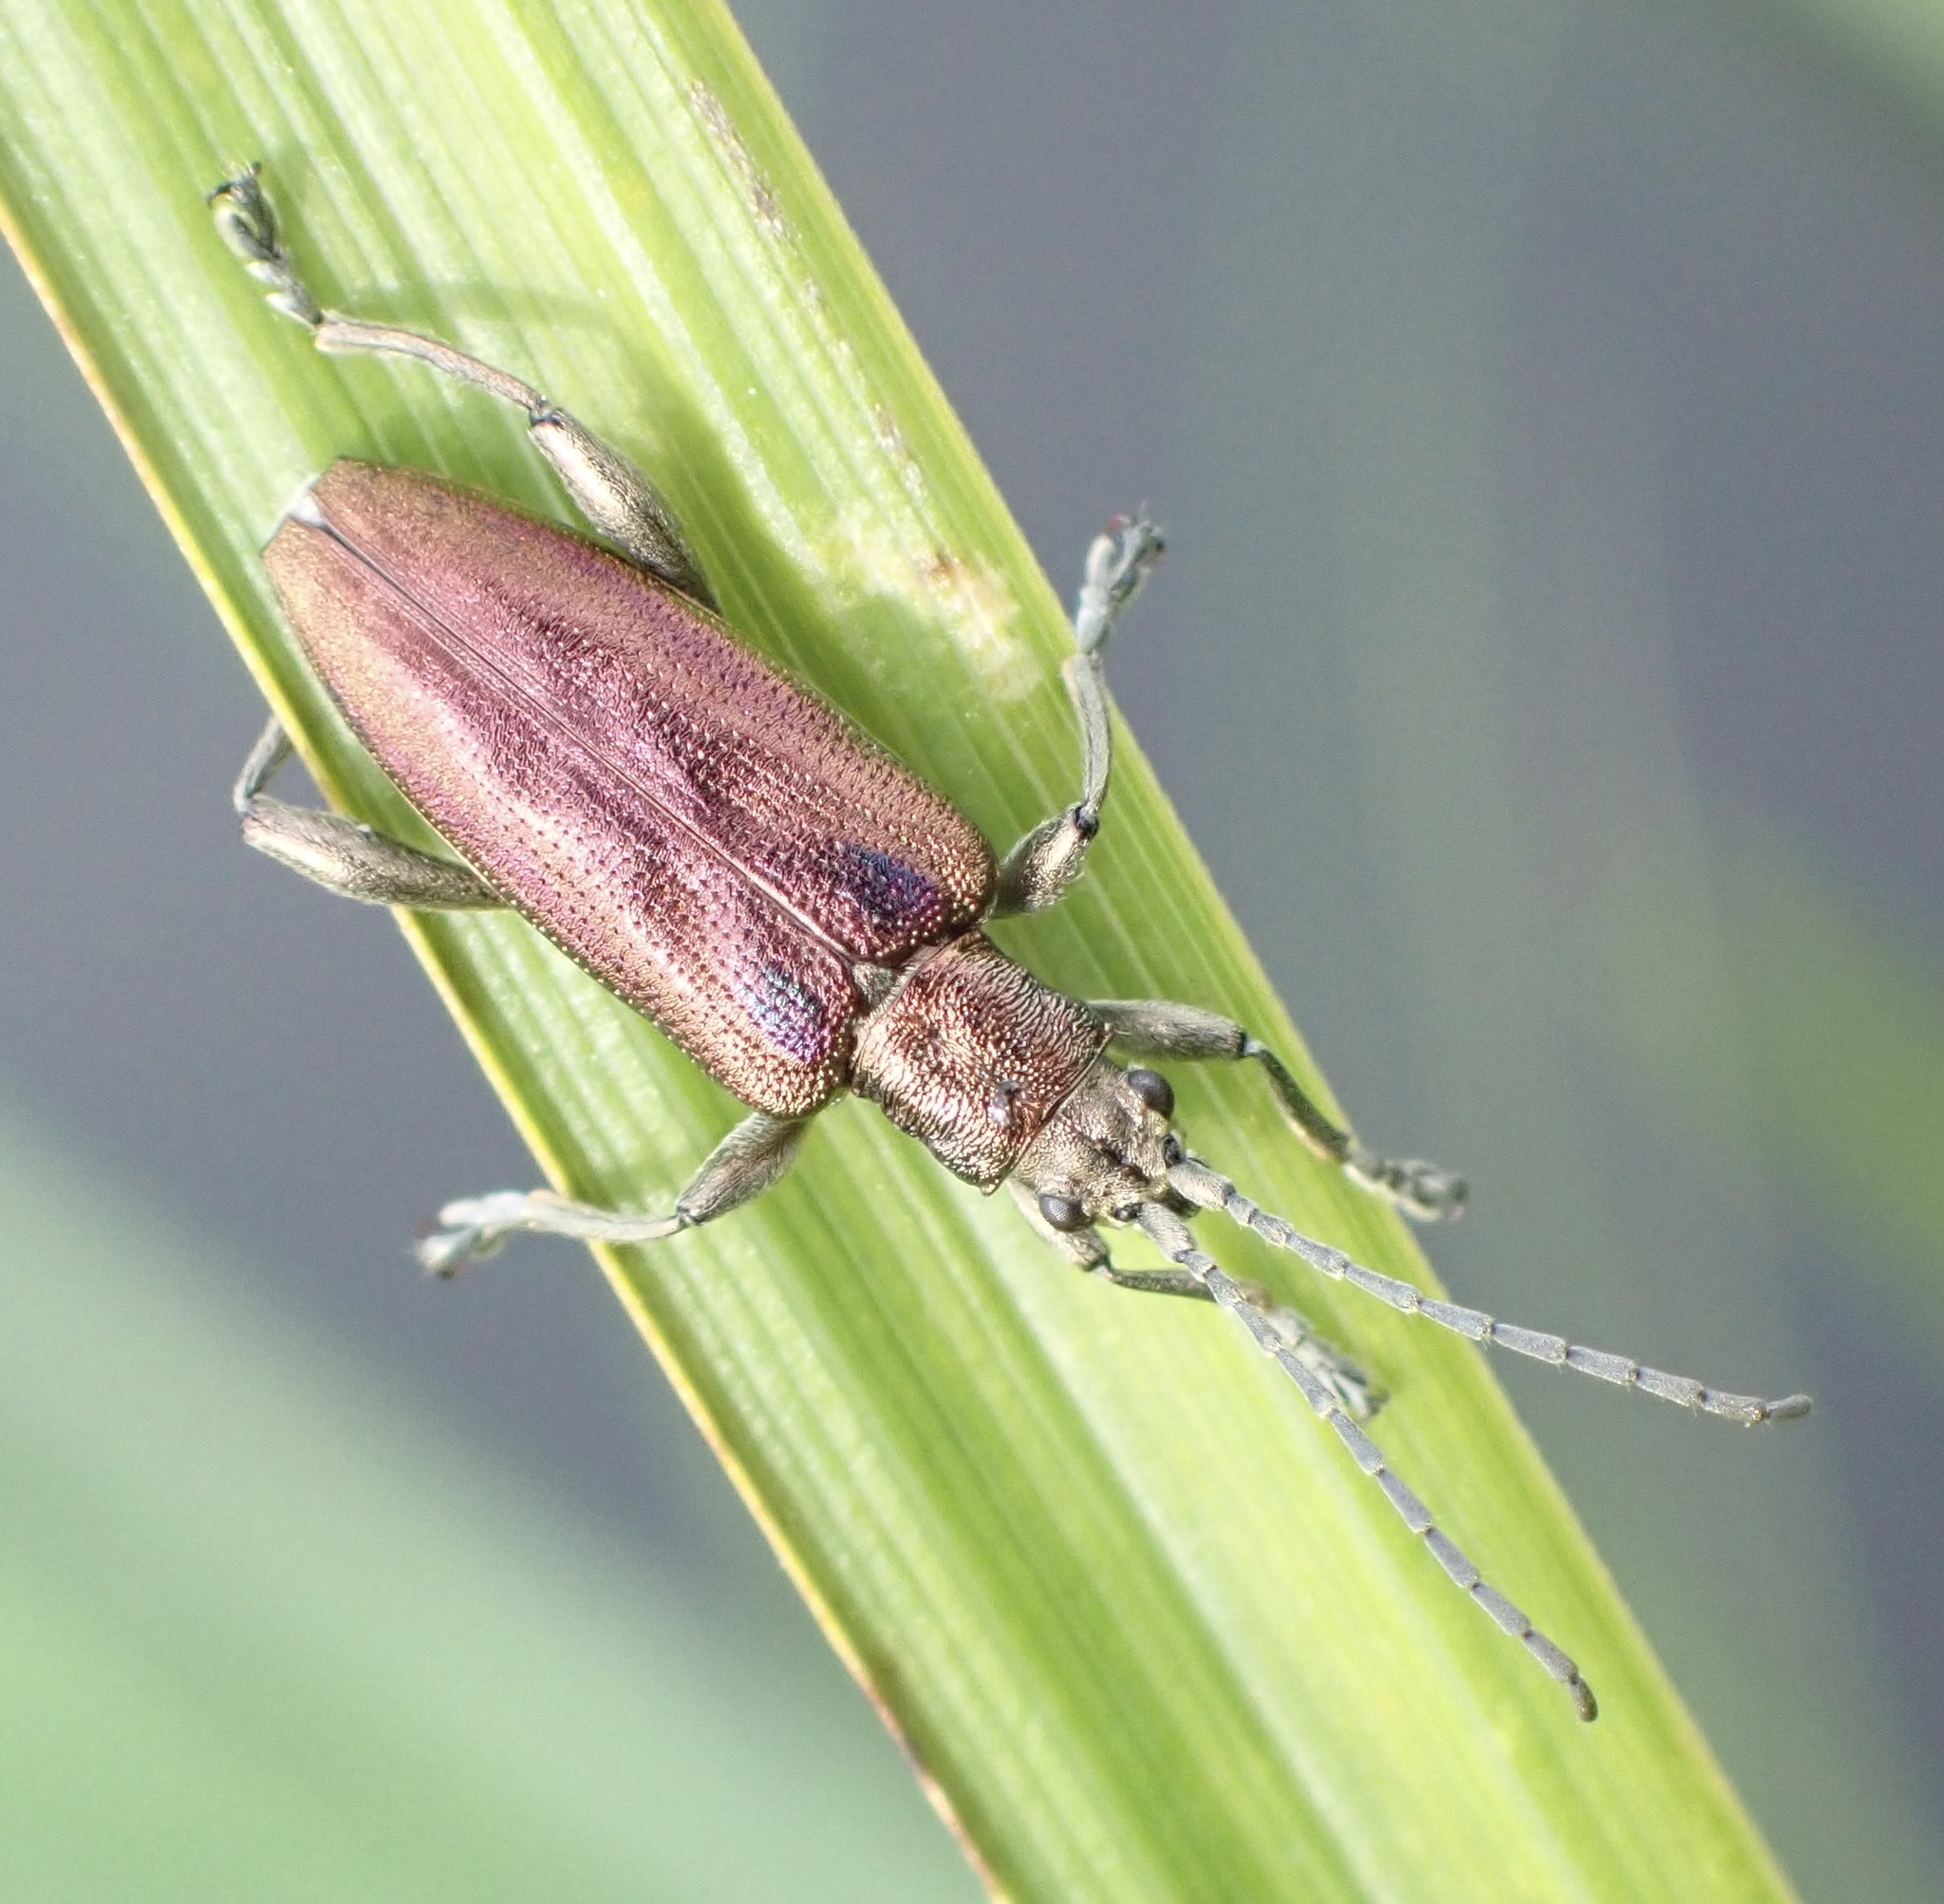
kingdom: Animalia
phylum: Arthropoda
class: Insecta
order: Coleoptera
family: Chrysomelidae
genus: Donacia
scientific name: Donacia marginata
